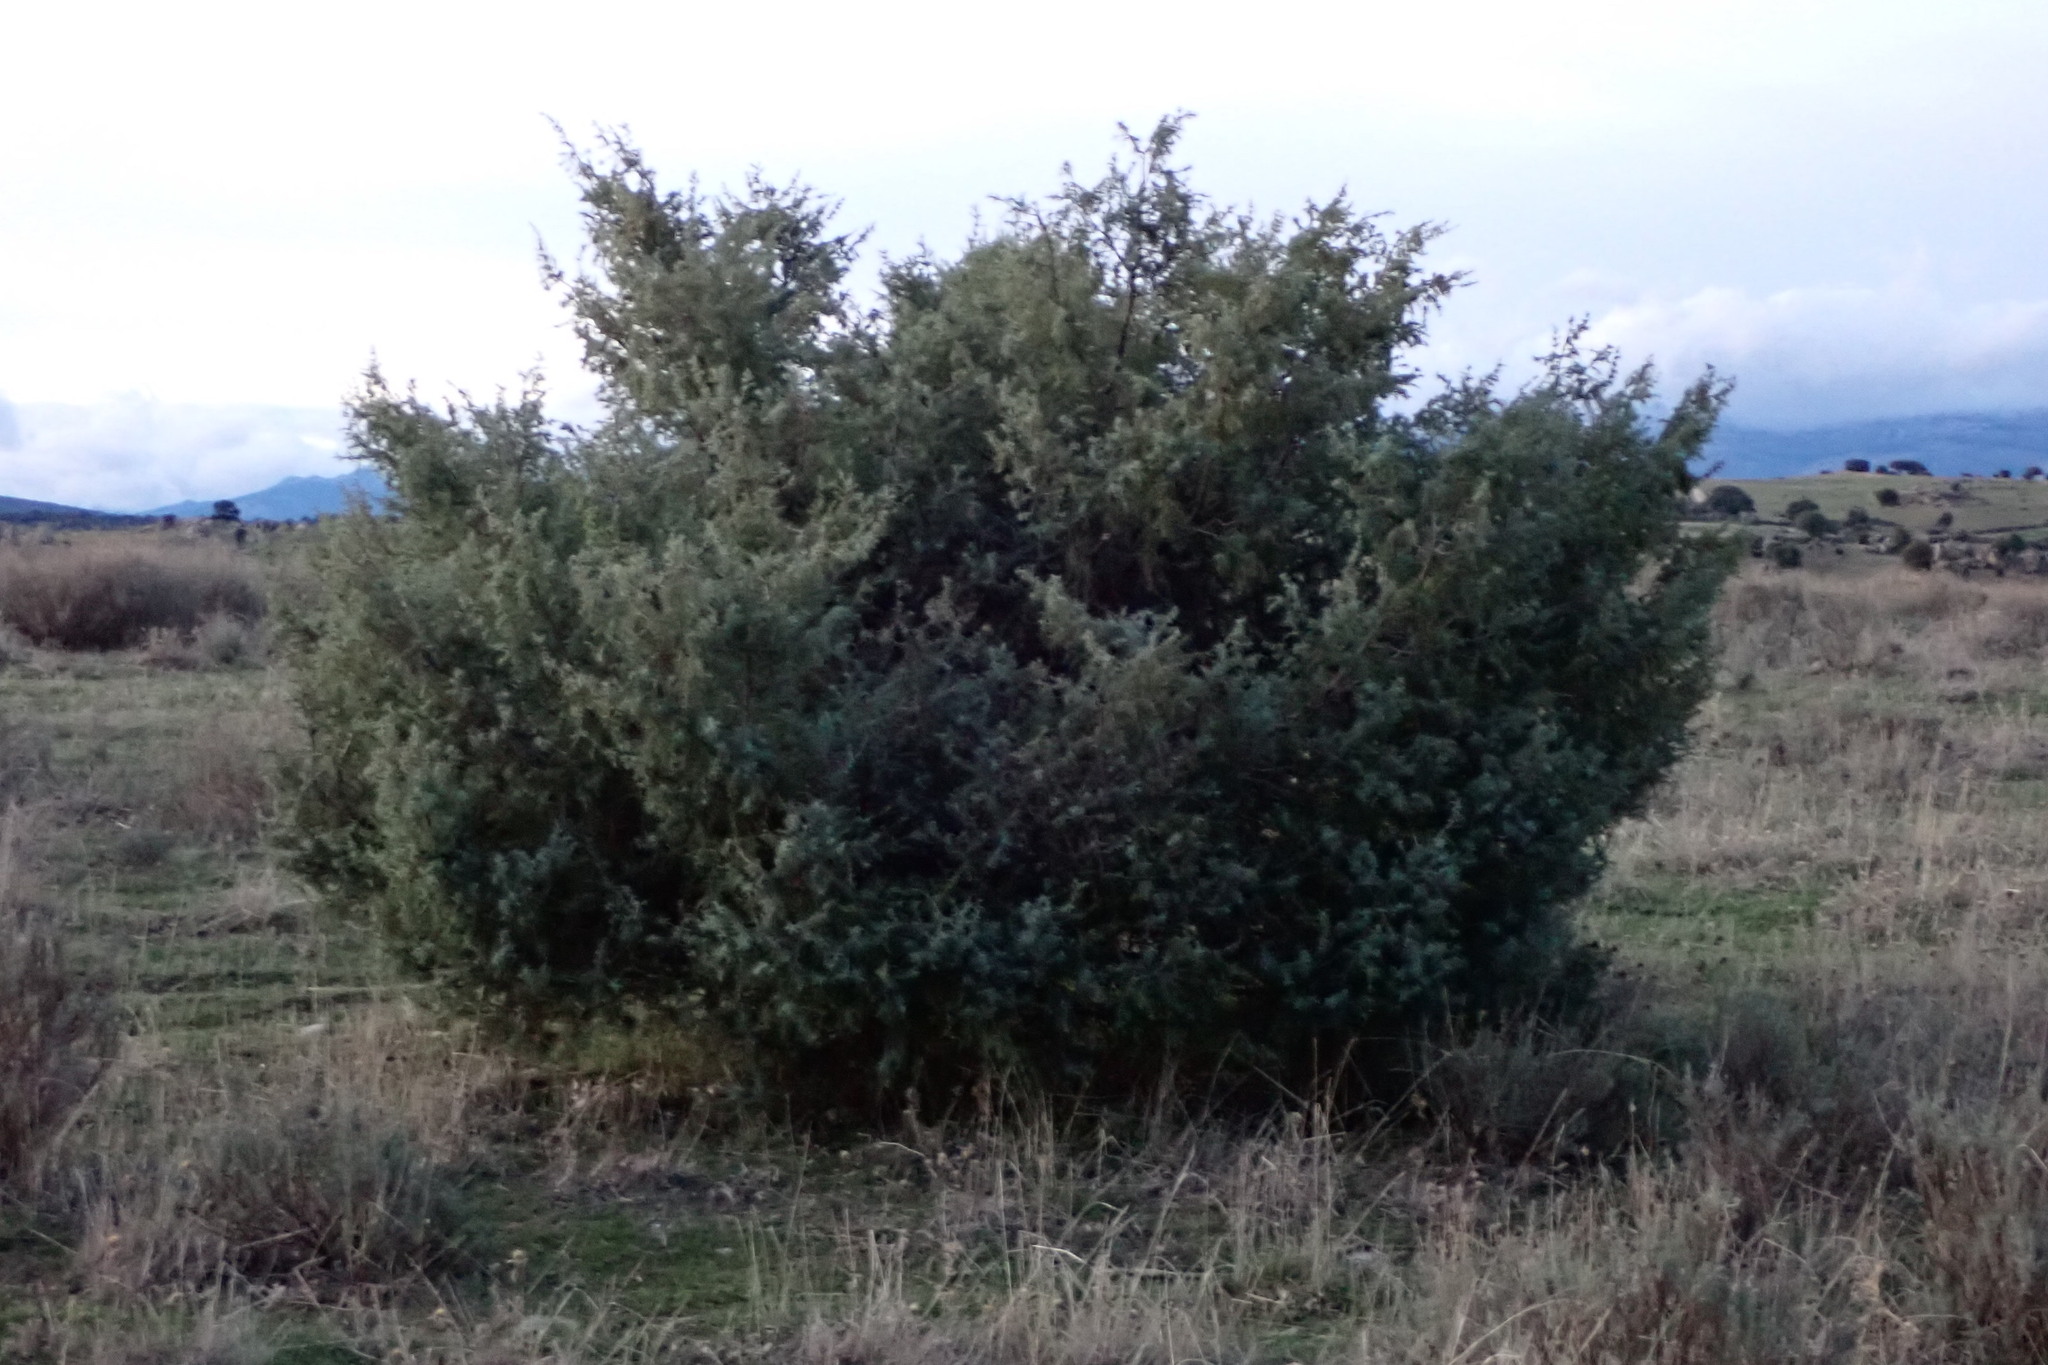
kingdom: Plantae
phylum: Tracheophyta
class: Pinopsida
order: Pinales
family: Cupressaceae
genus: Juniperus
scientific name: Juniperus oxycedrus
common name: Prickly juniper
